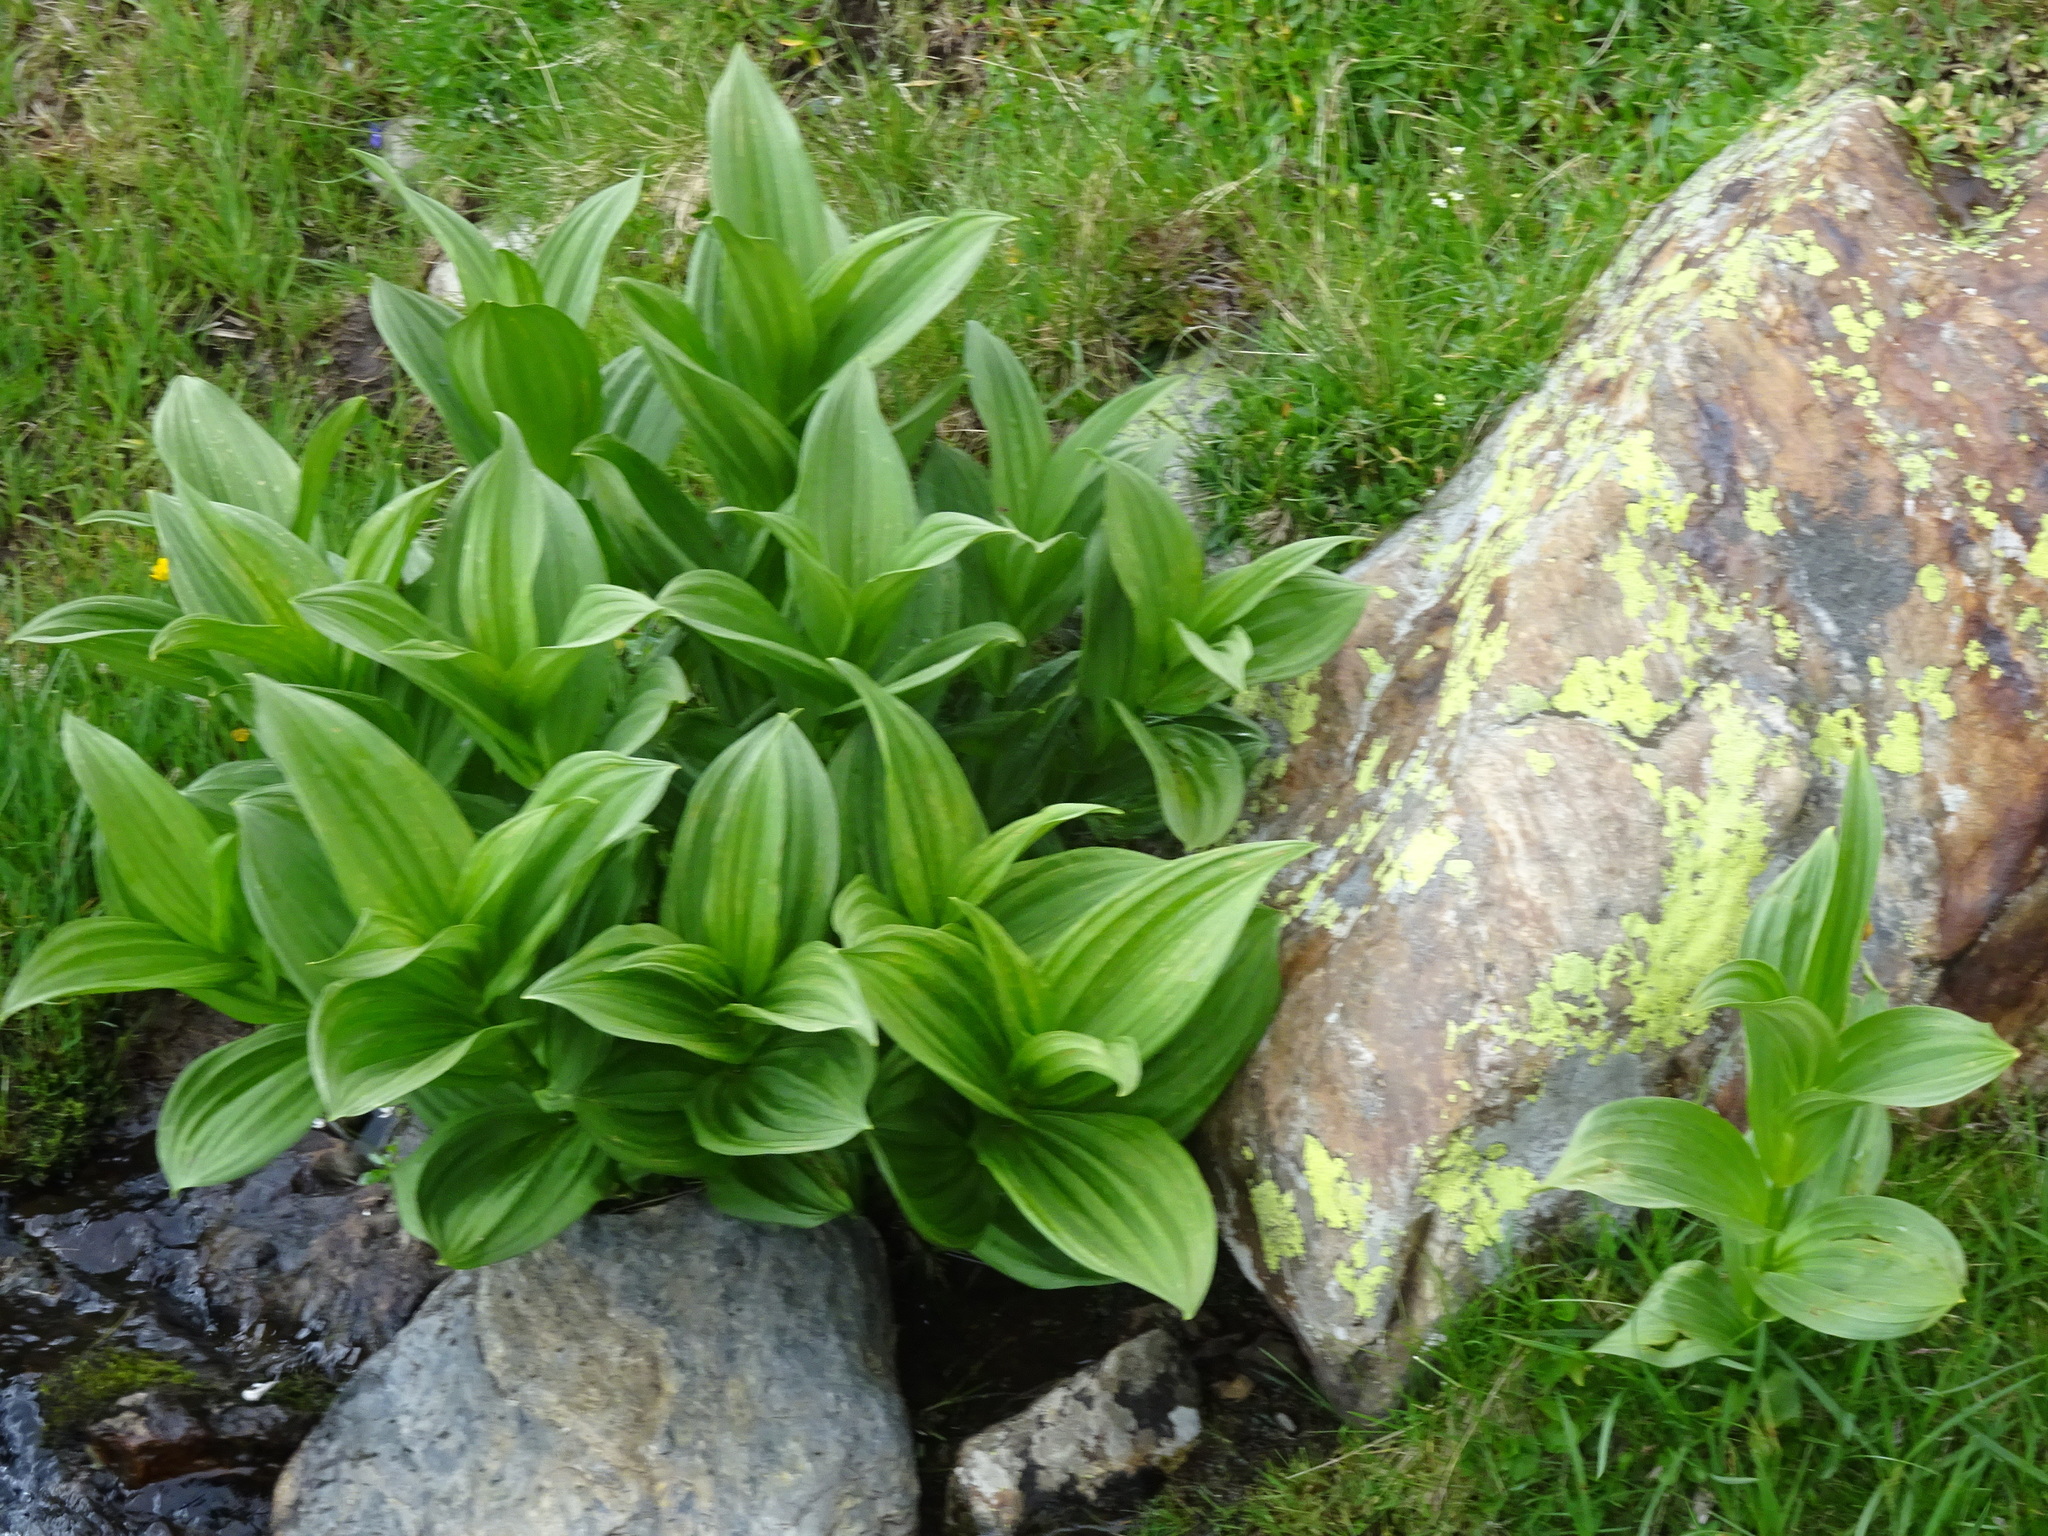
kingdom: Plantae
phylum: Tracheophyta
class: Liliopsida
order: Liliales
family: Melanthiaceae
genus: Veratrum
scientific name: Veratrum album
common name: White veratrum
